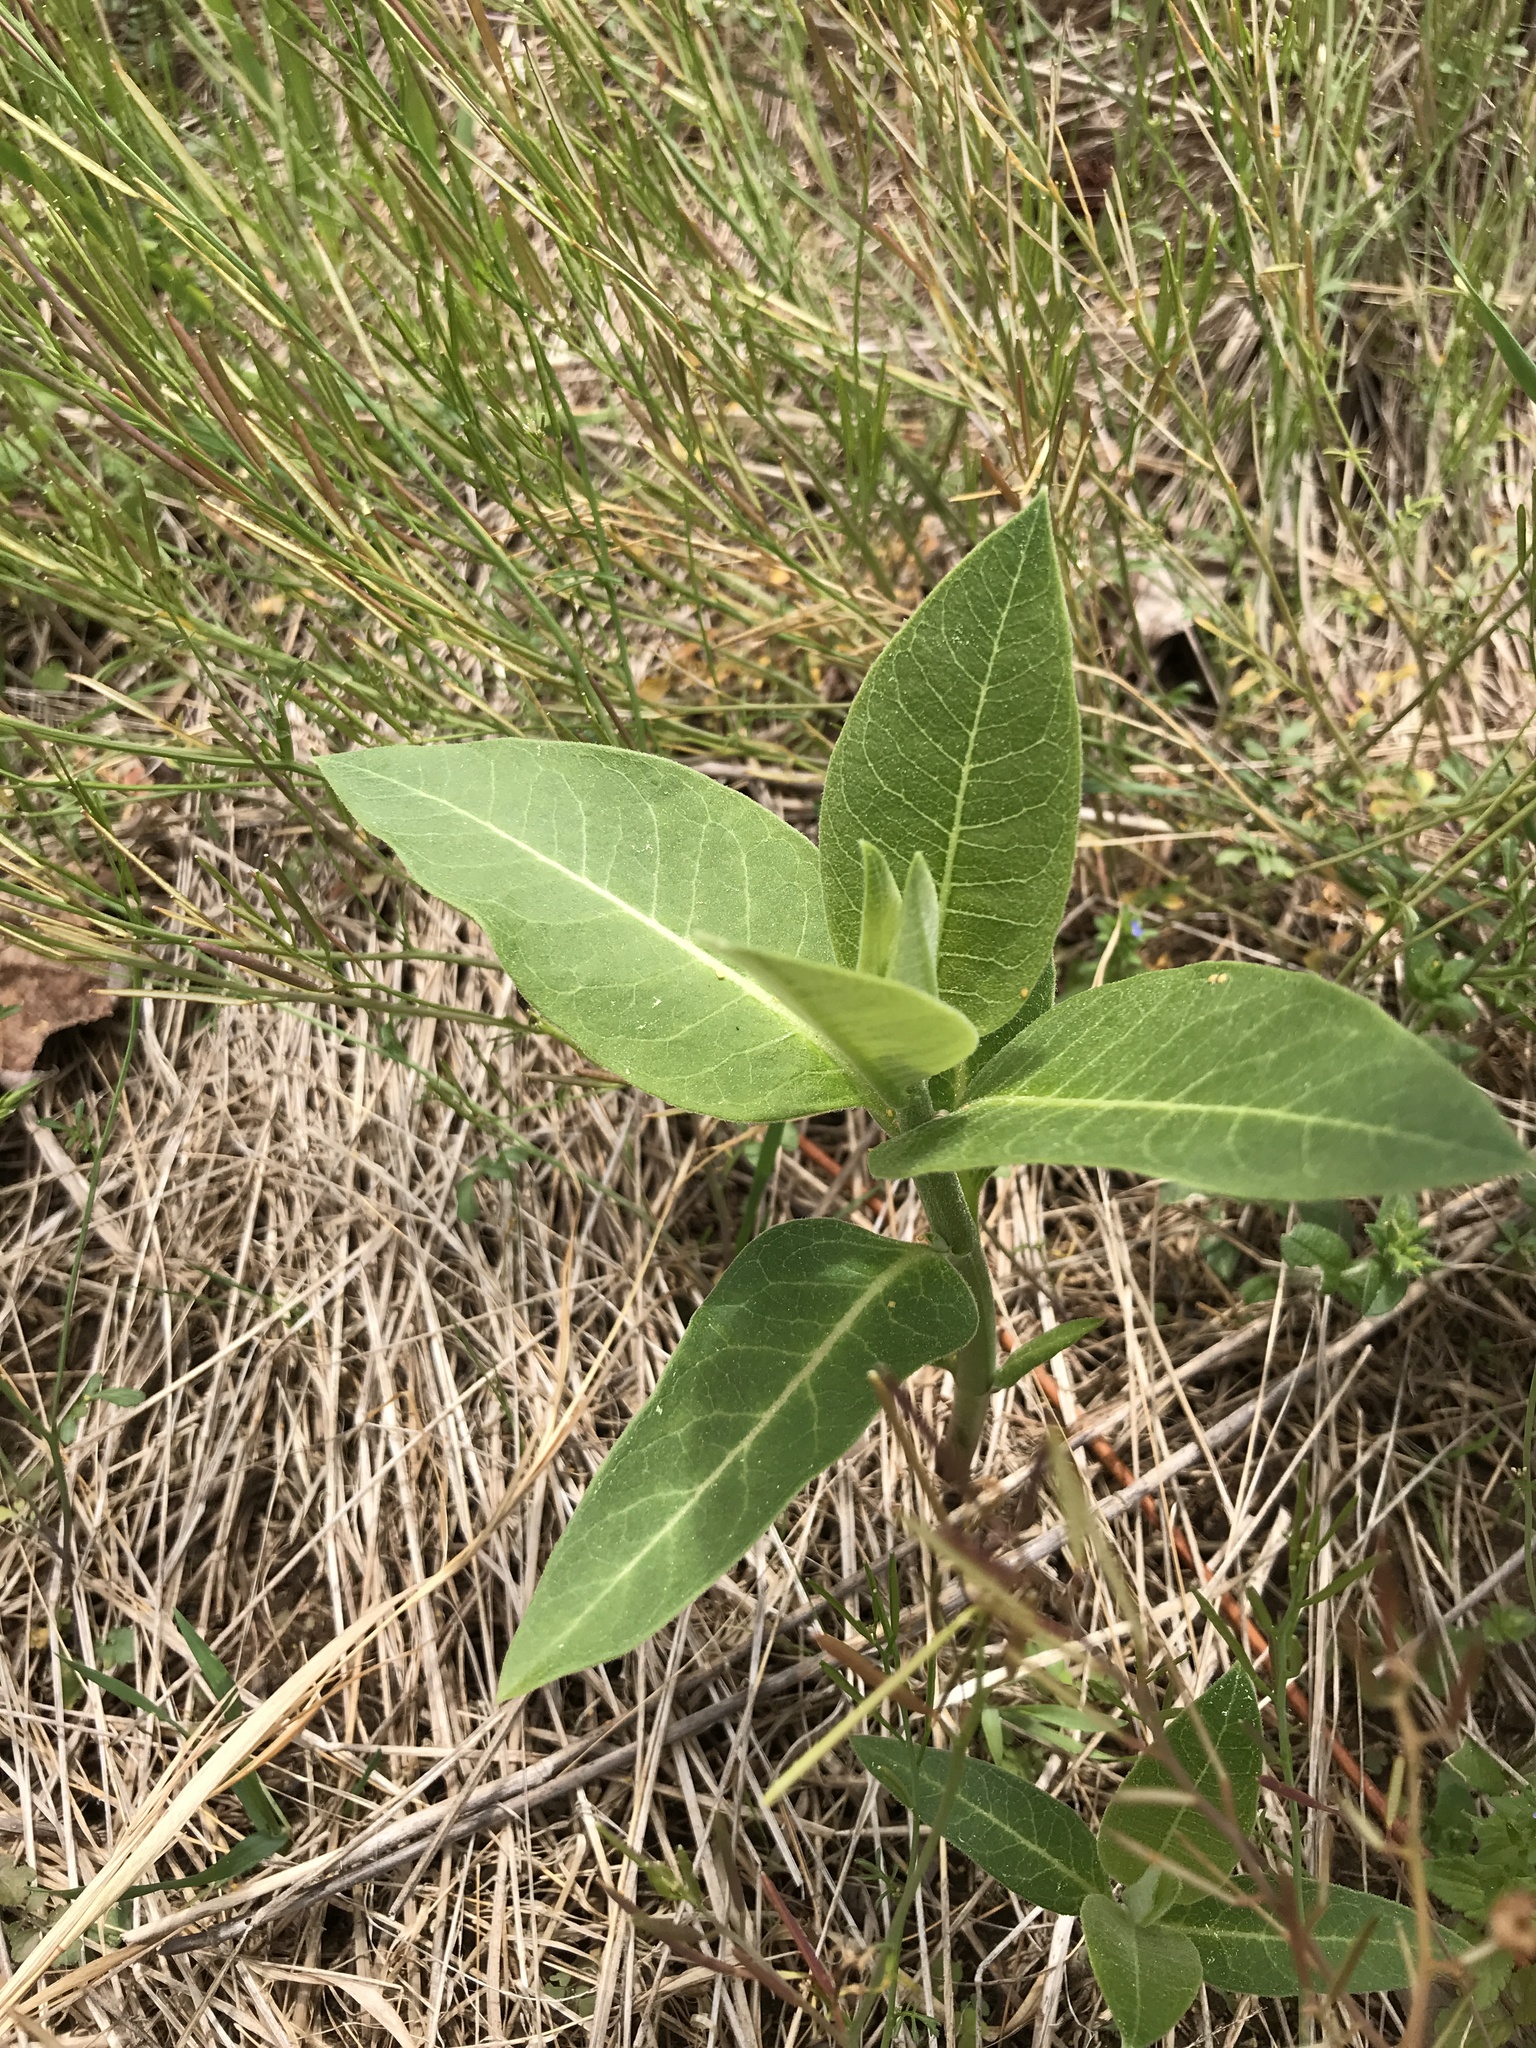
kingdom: Plantae
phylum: Tracheophyta
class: Magnoliopsida
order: Gentianales
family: Apocynaceae
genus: Asclepias
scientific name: Asclepias syriaca
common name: Common milkweed
